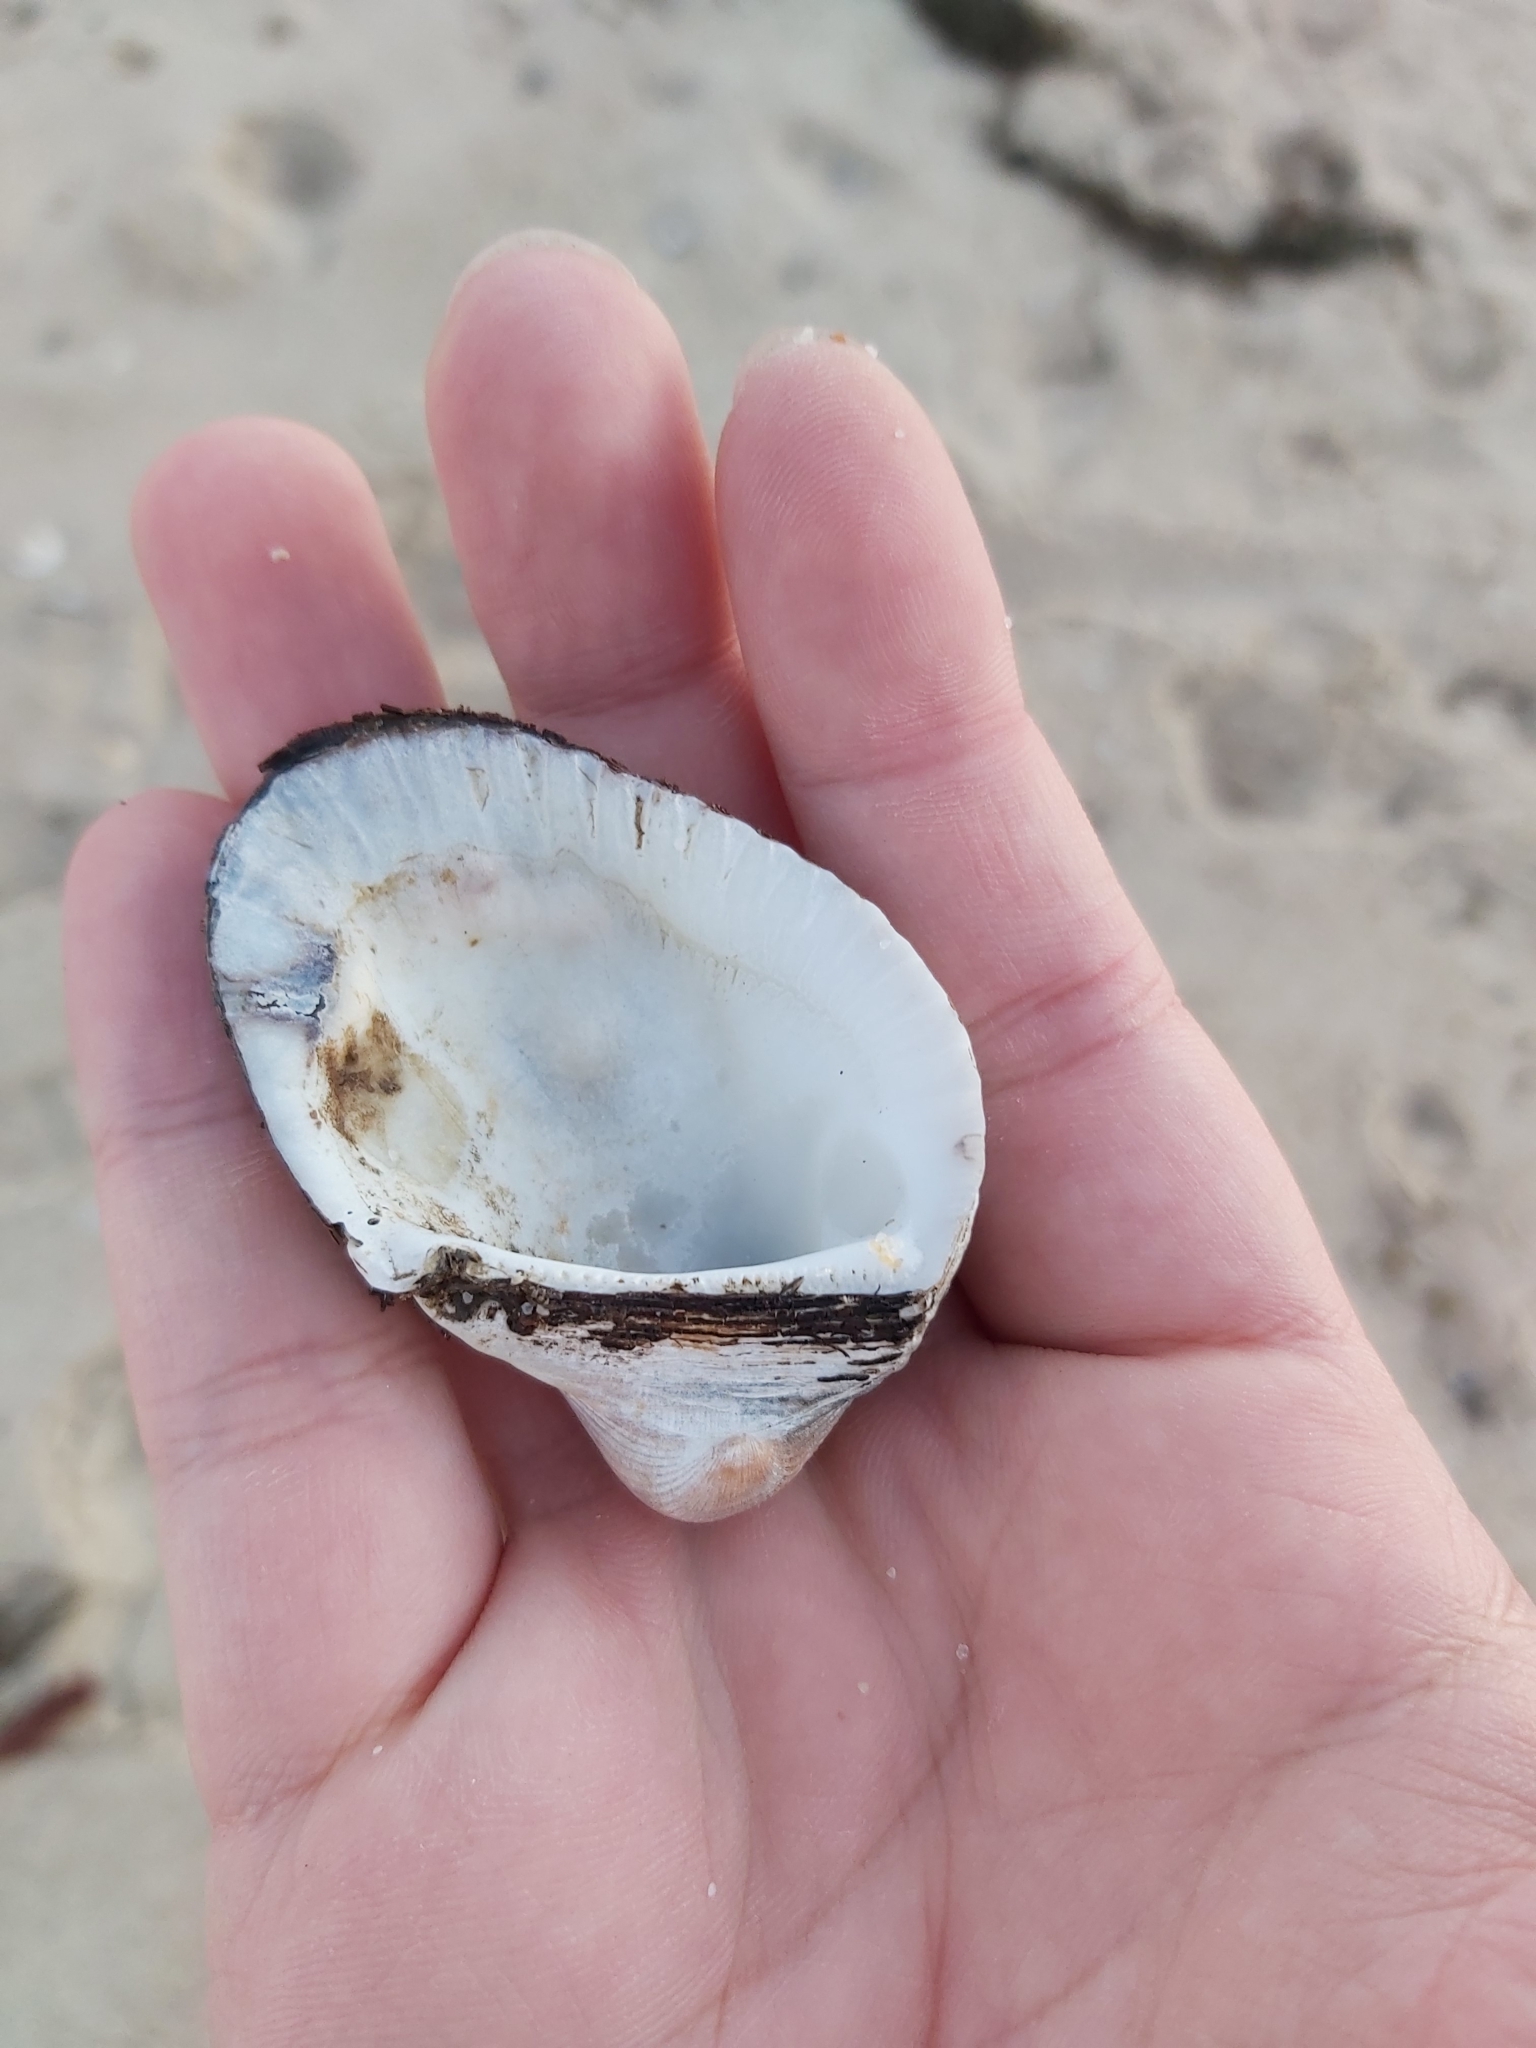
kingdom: Animalia
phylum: Mollusca
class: Bivalvia
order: Arcida
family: Arcidae
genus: Anadara
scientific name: Anadara trapezia
